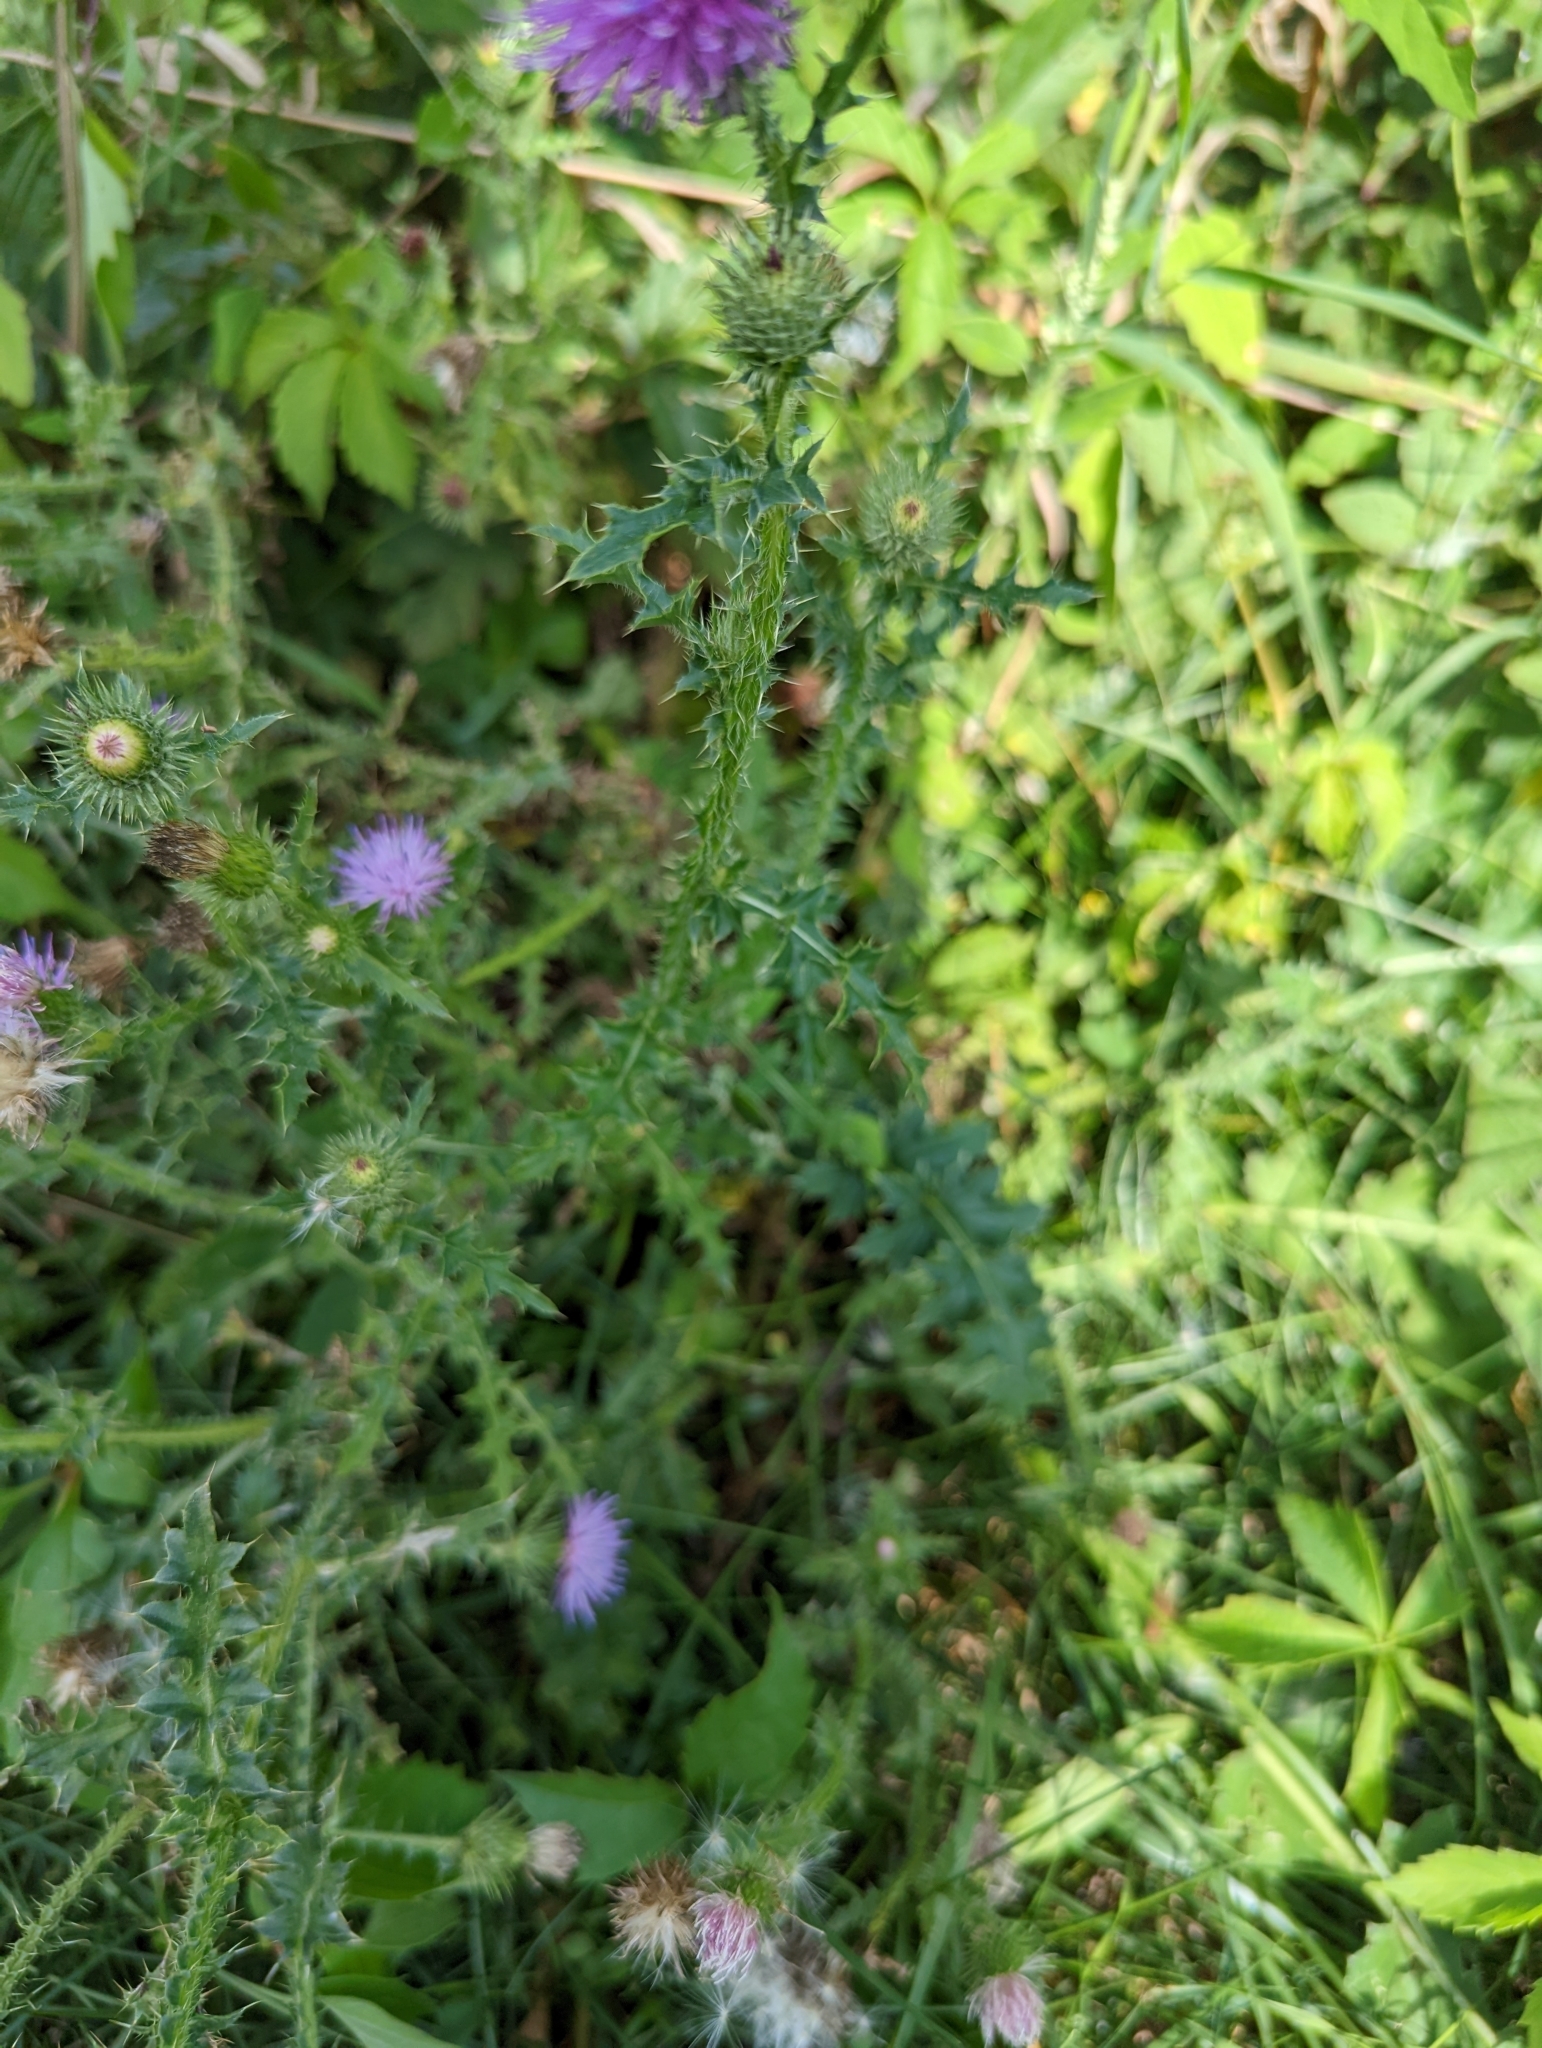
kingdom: Plantae
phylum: Tracheophyta
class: Magnoliopsida
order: Asterales
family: Asteraceae
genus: Carduus
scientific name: Carduus acanthoides
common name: Plumeless thistle
